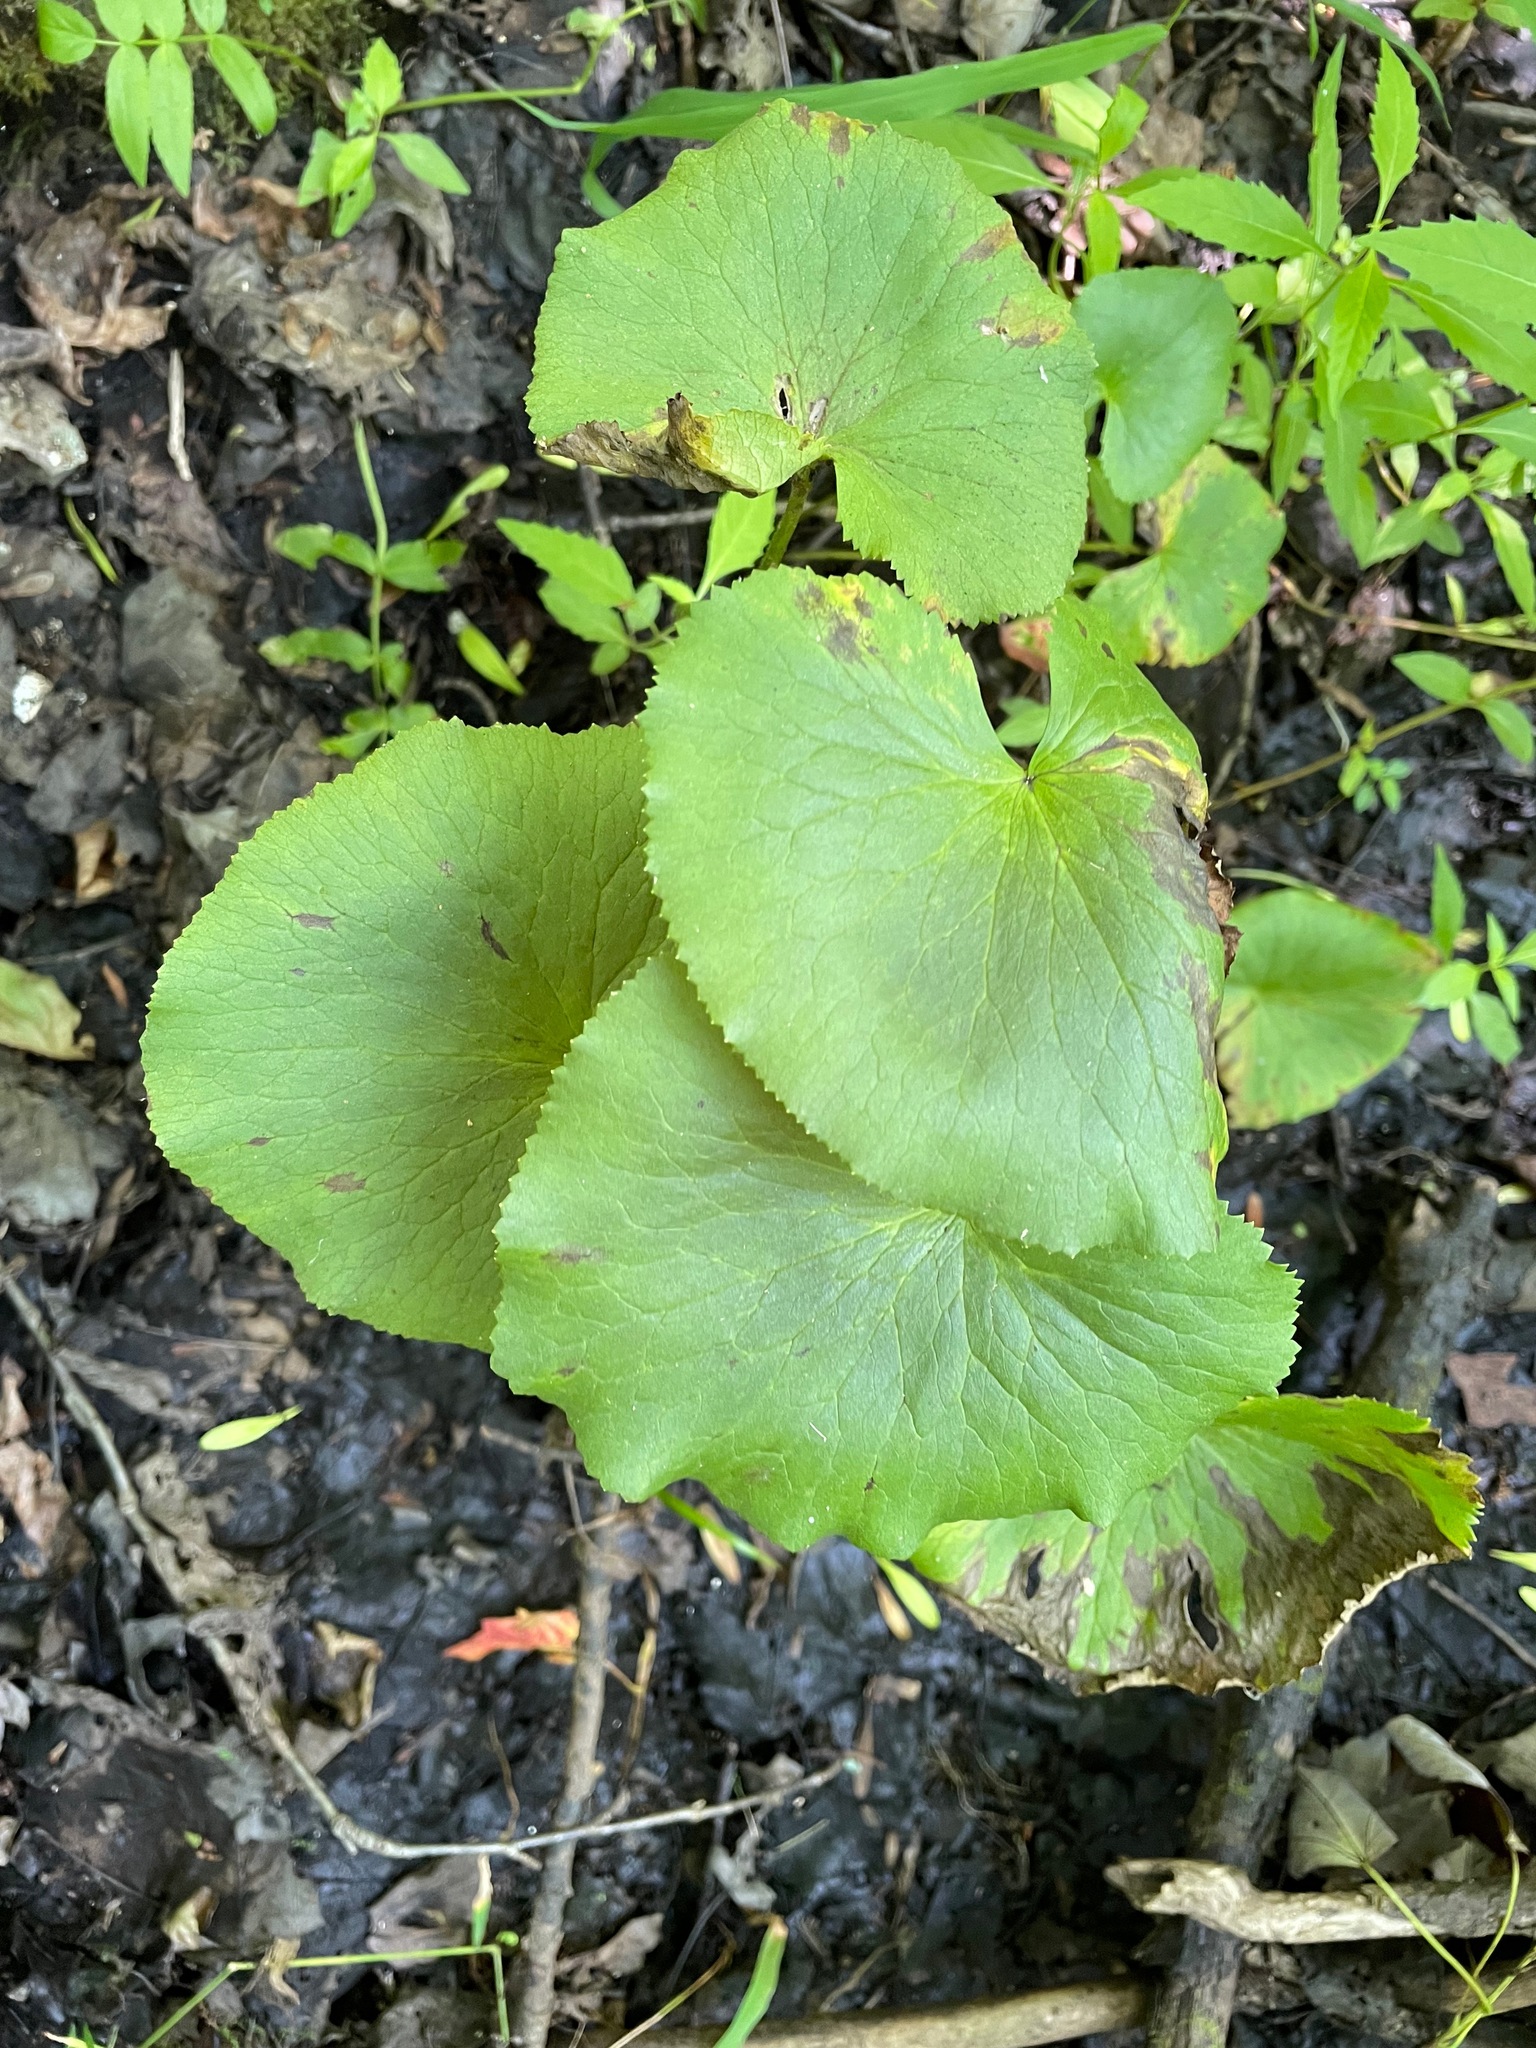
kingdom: Plantae
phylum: Tracheophyta
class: Magnoliopsida
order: Ranunculales
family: Ranunculaceae
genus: Caltha
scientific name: Caltha palustris
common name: Marsh marigold
